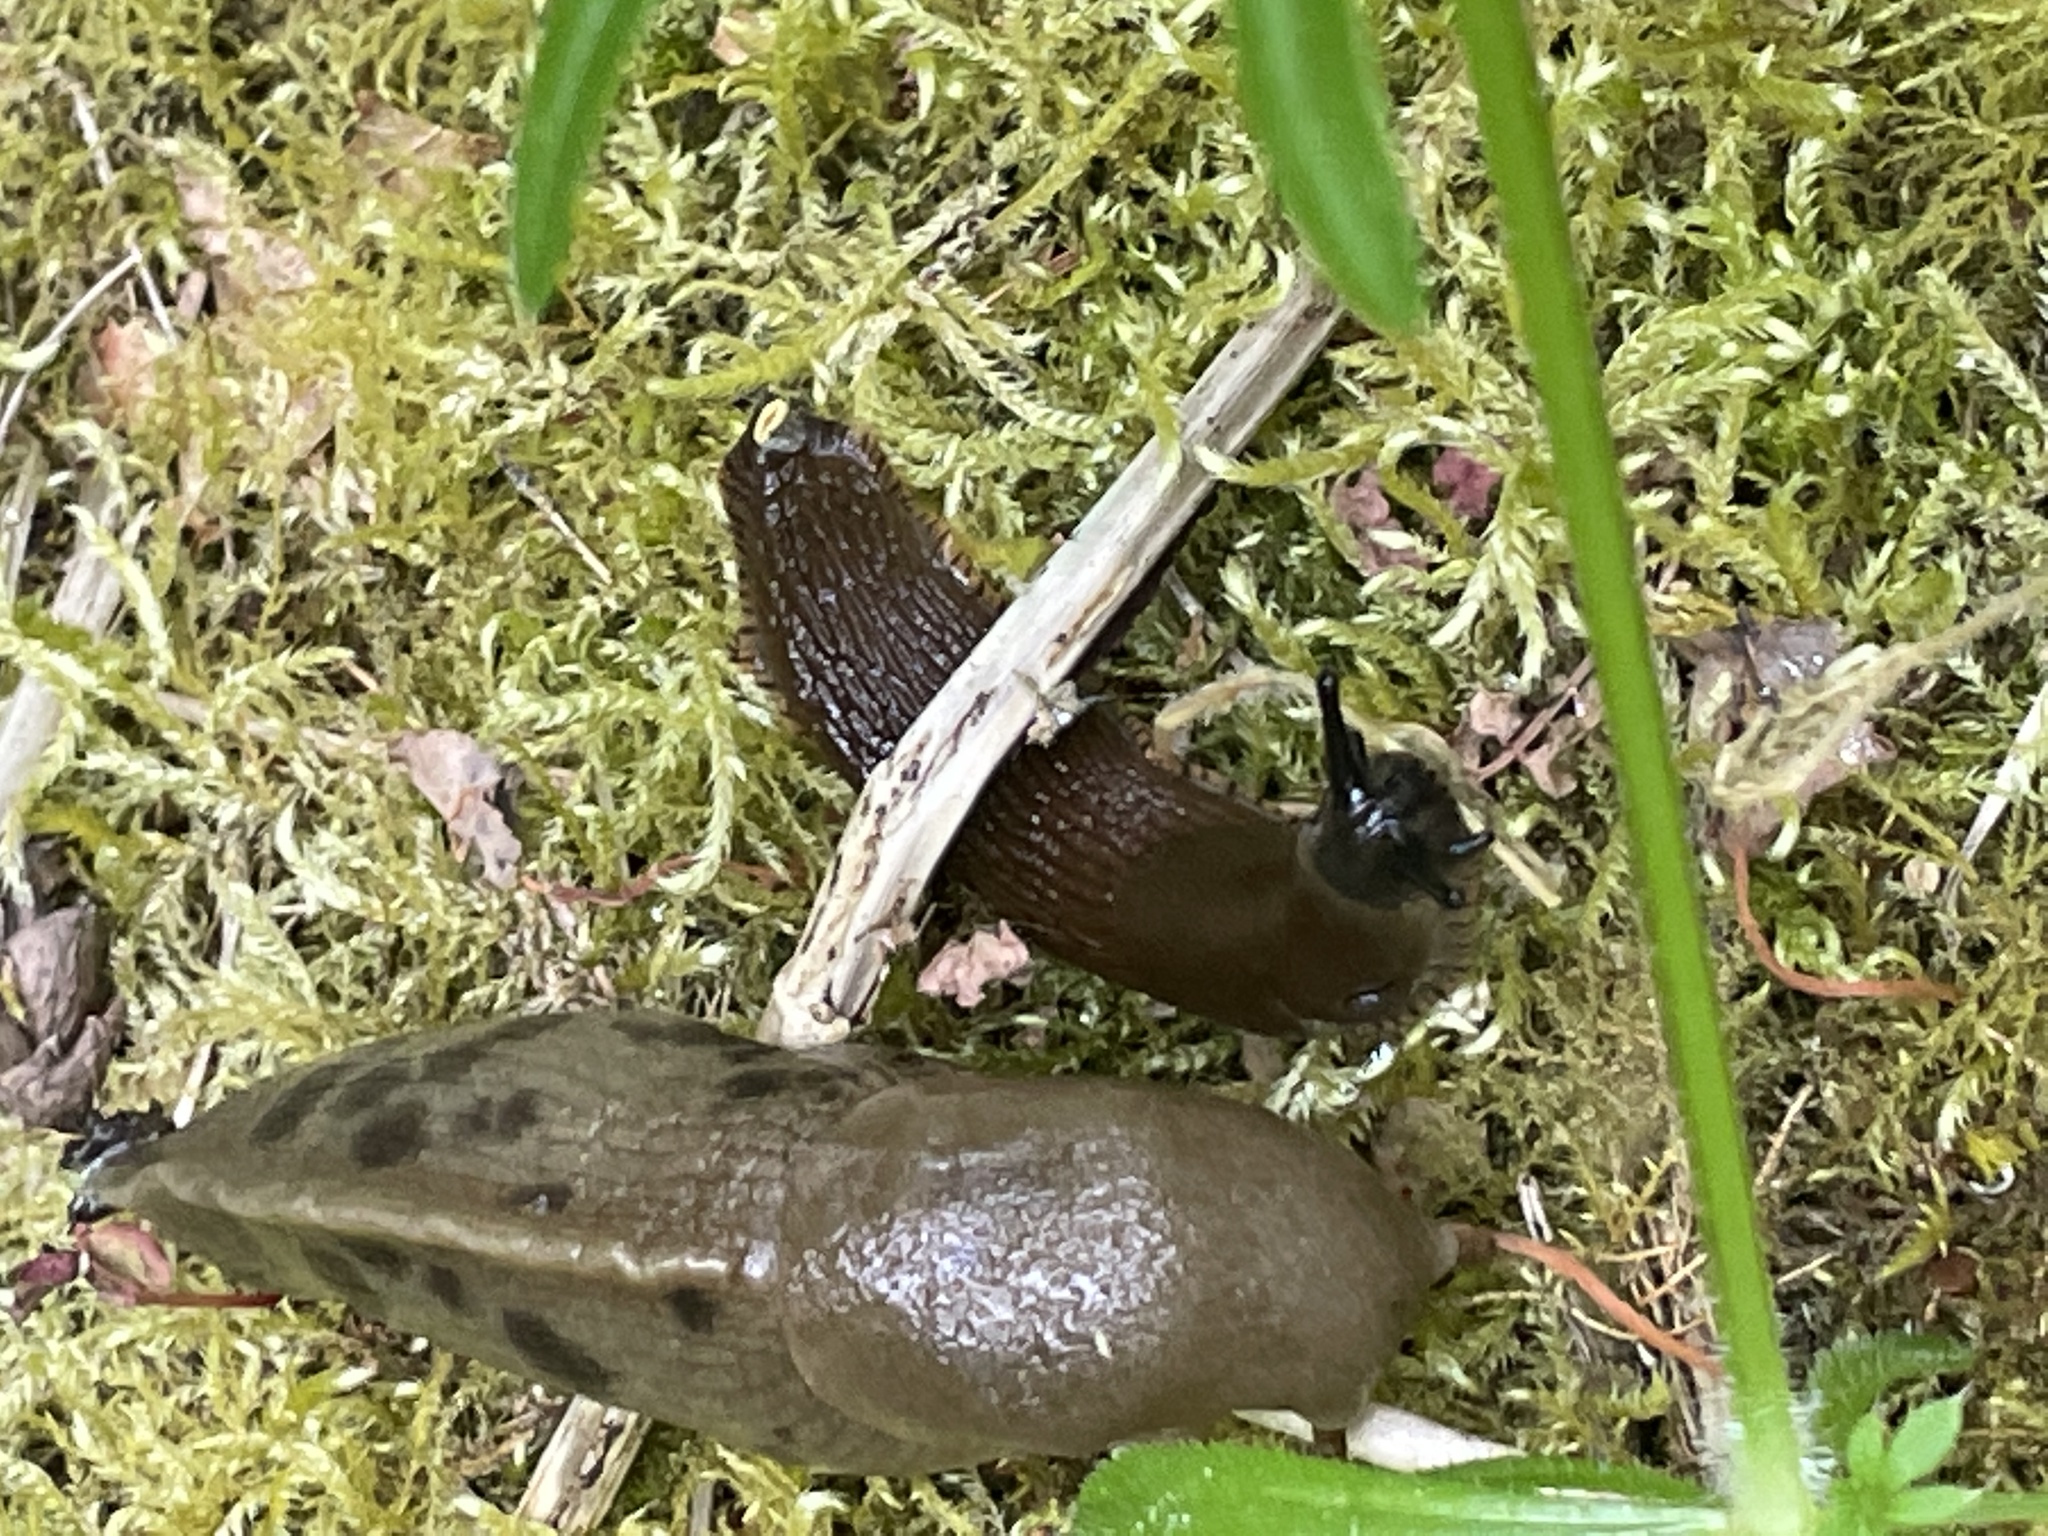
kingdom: Animalia
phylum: Mollusca
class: Gastropoda
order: Stylommatophora
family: Ariolimacidae
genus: Ariolimax
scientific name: Ariolimax columbianus
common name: Pacific banana slug
